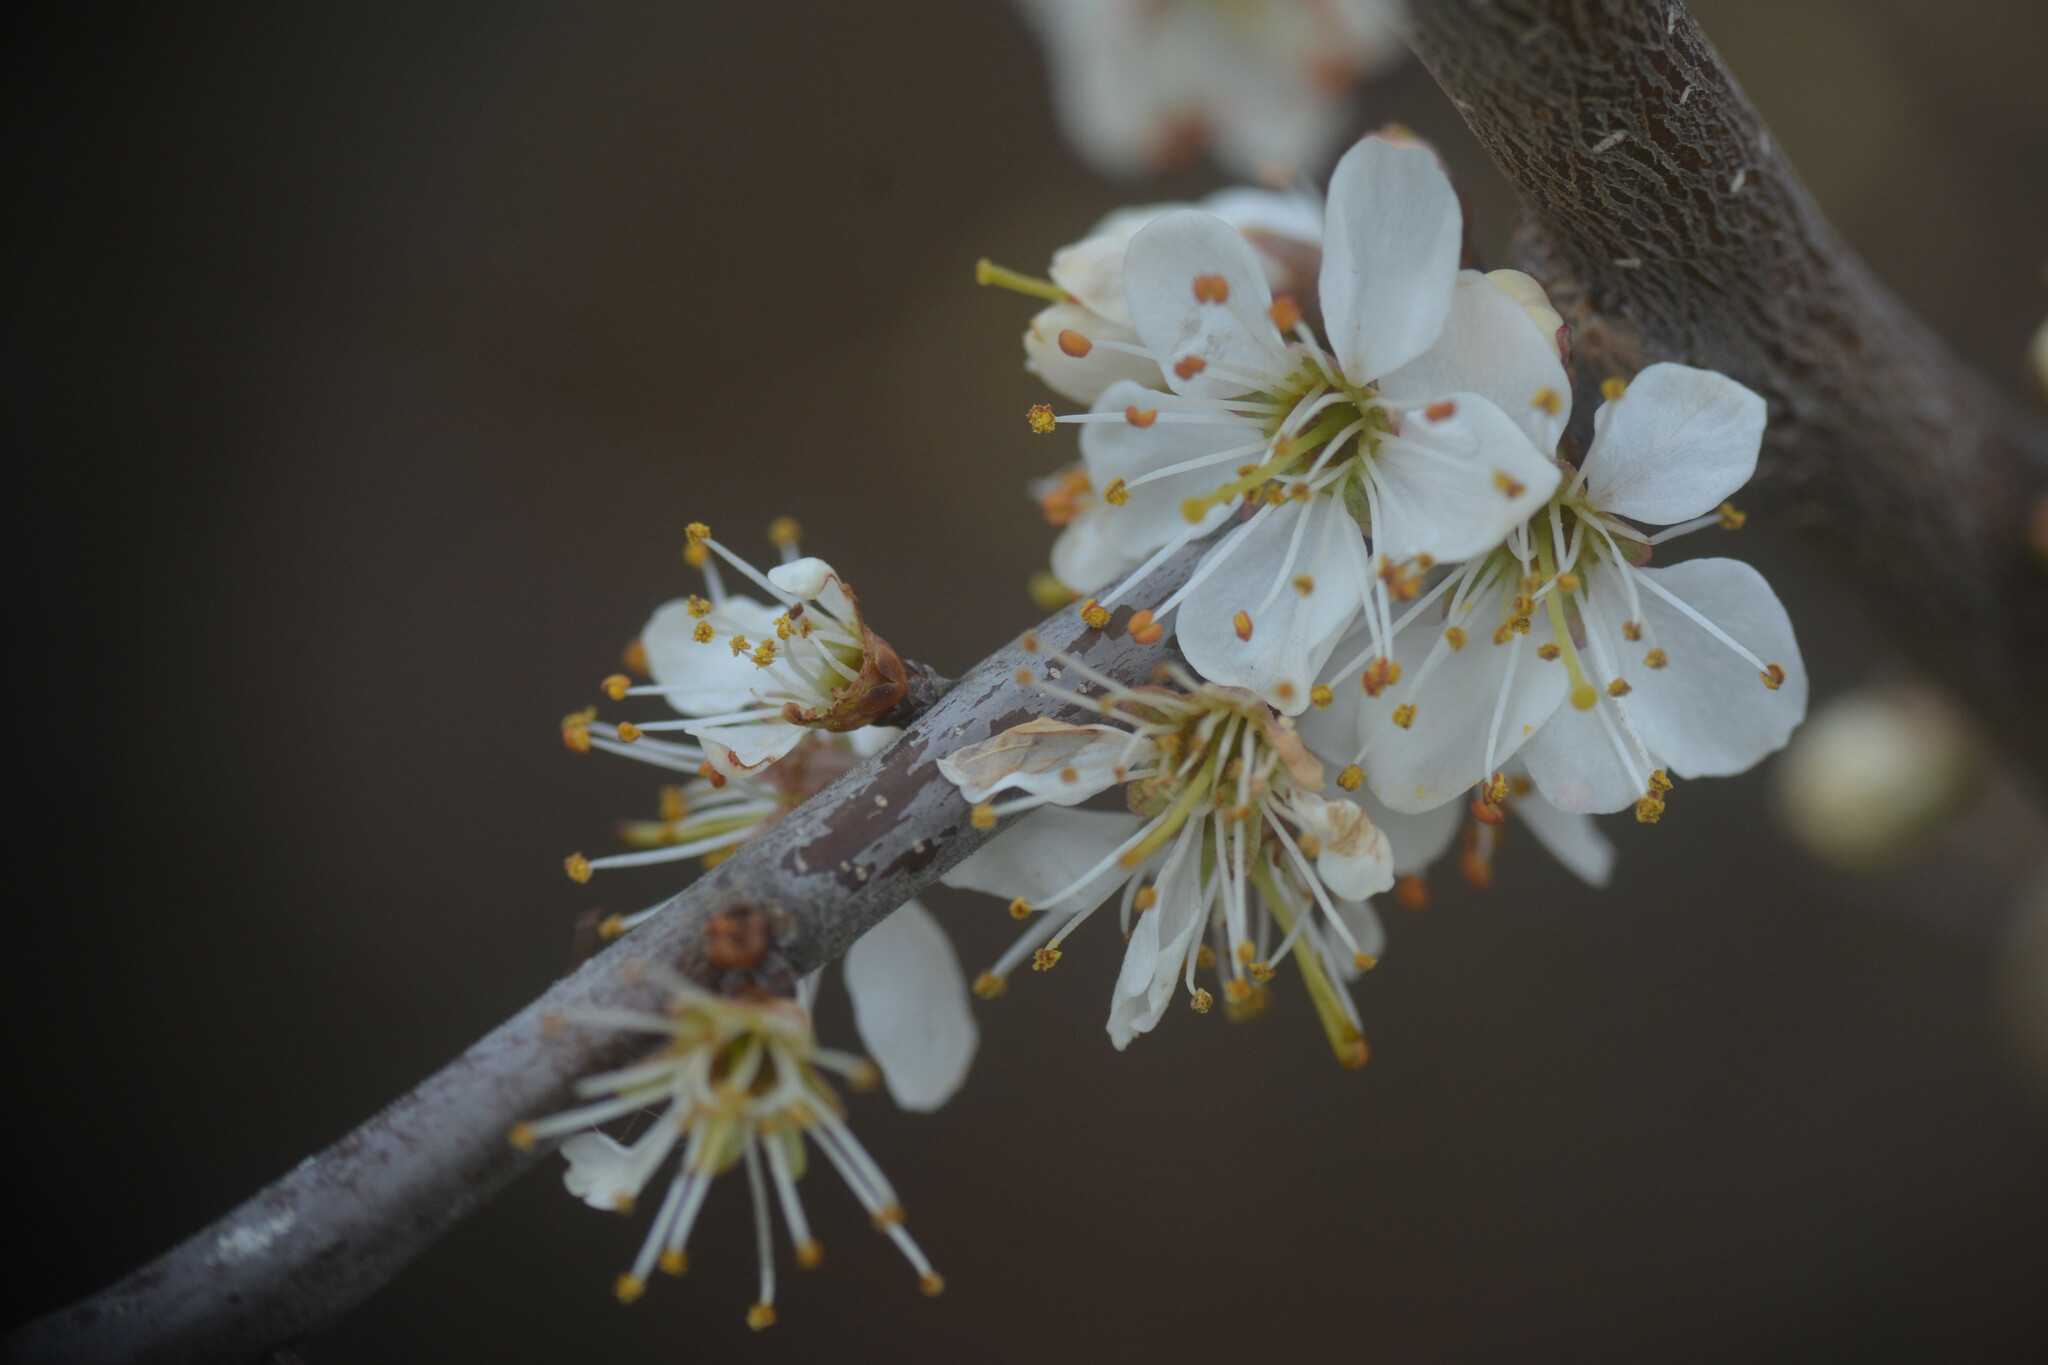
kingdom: Plantae
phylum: Tracheophyta
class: Magnoliopsida
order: Rosales
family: Rosaceae
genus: Prunus
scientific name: Prunus spinosa
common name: Blackthorn
